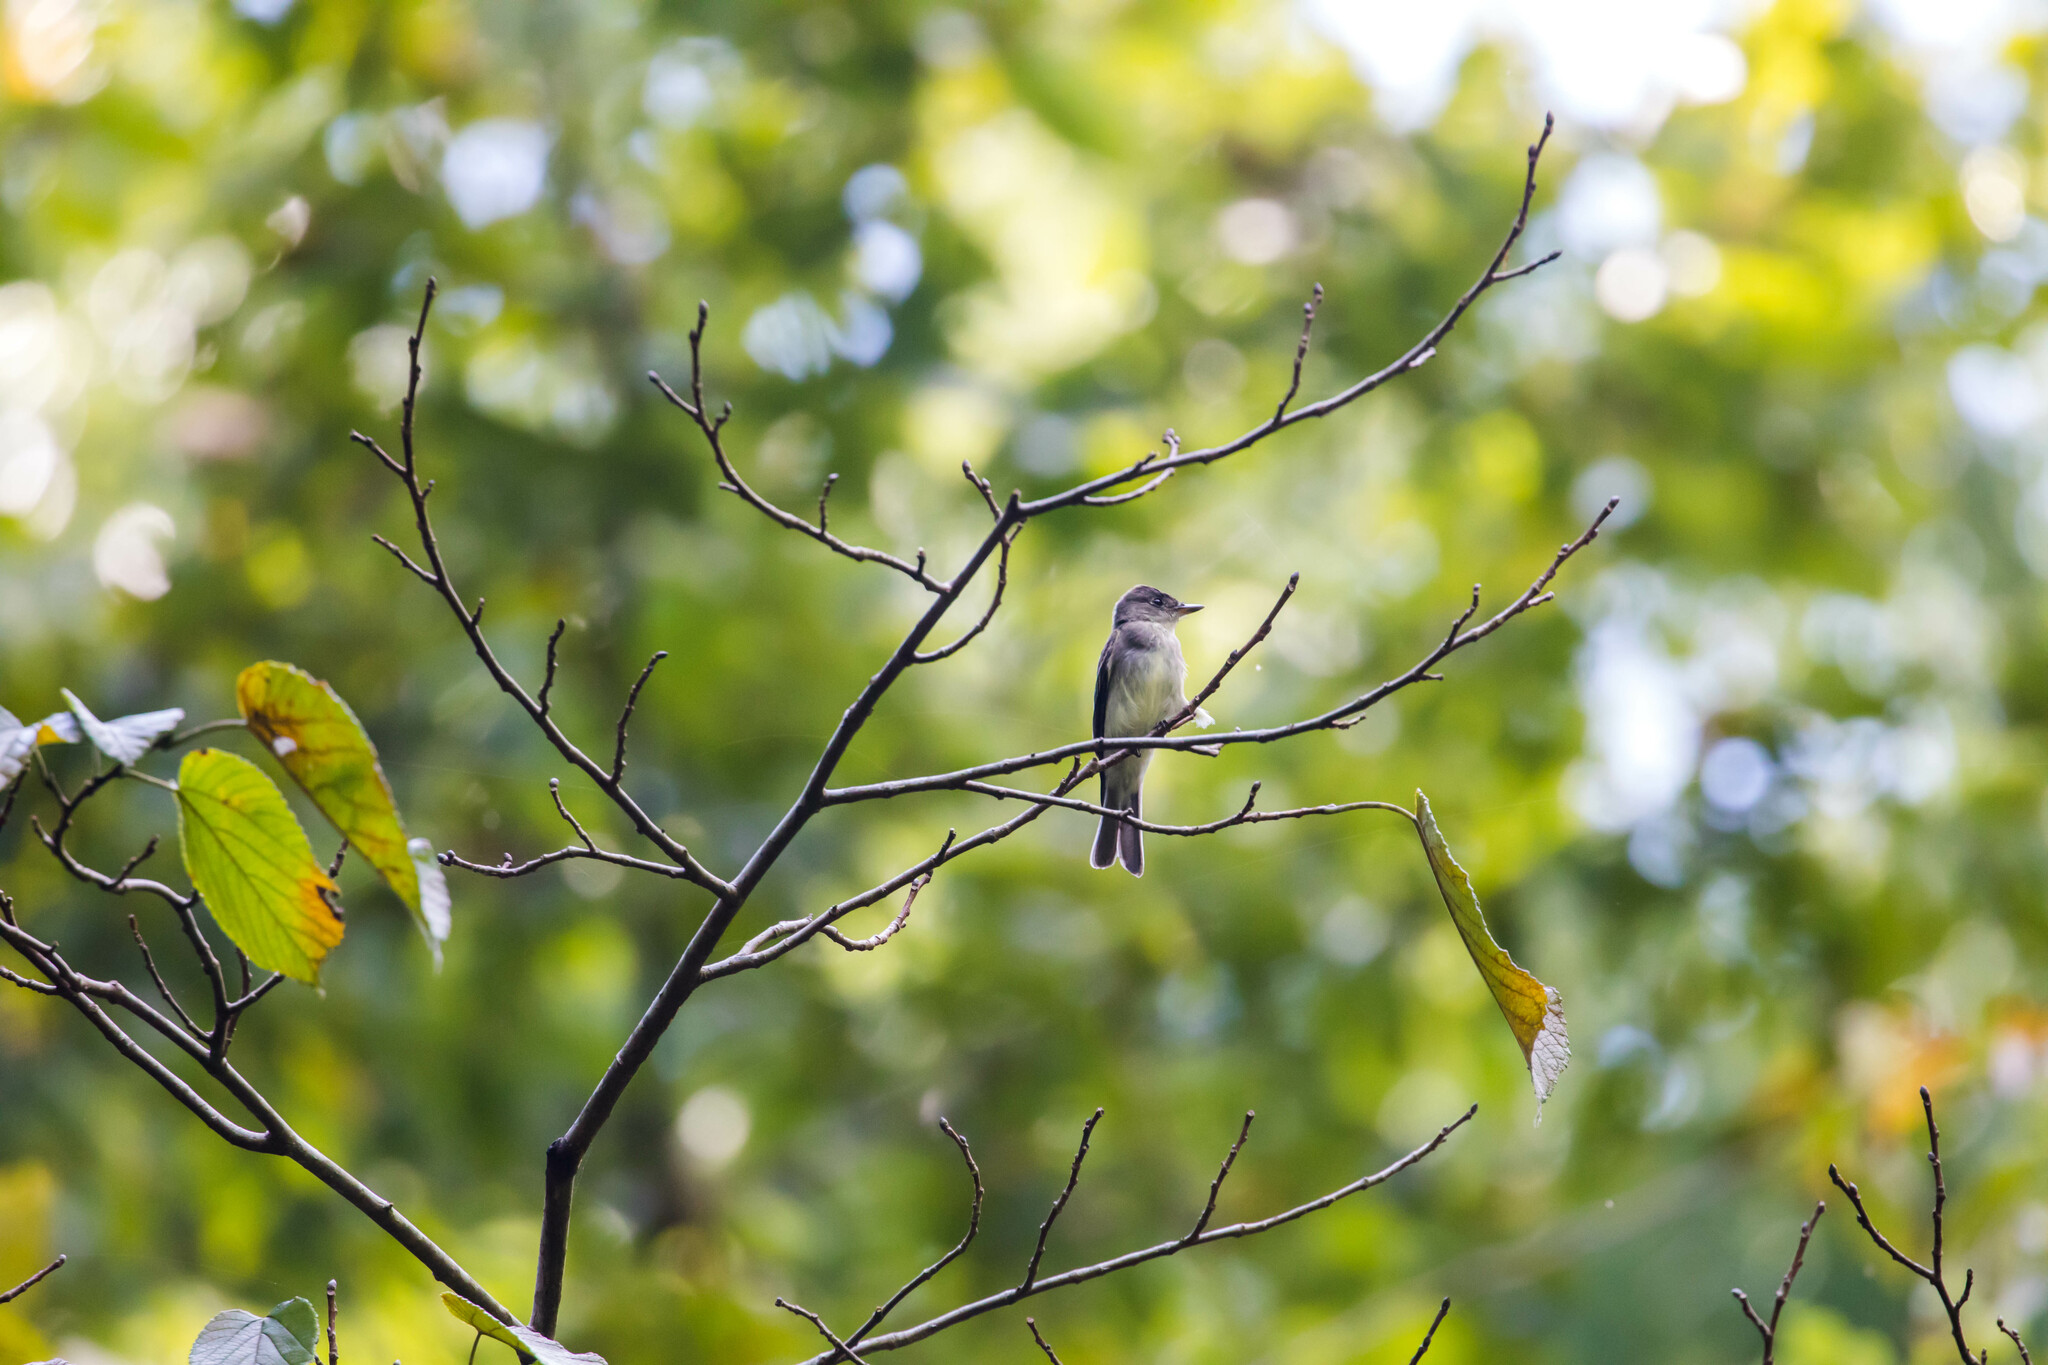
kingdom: Animalia
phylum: Chordata
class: Aves
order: Passeriformes
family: Tyrannidae
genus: Contopus
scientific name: Contopus virens
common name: Eastern wood-pewee
